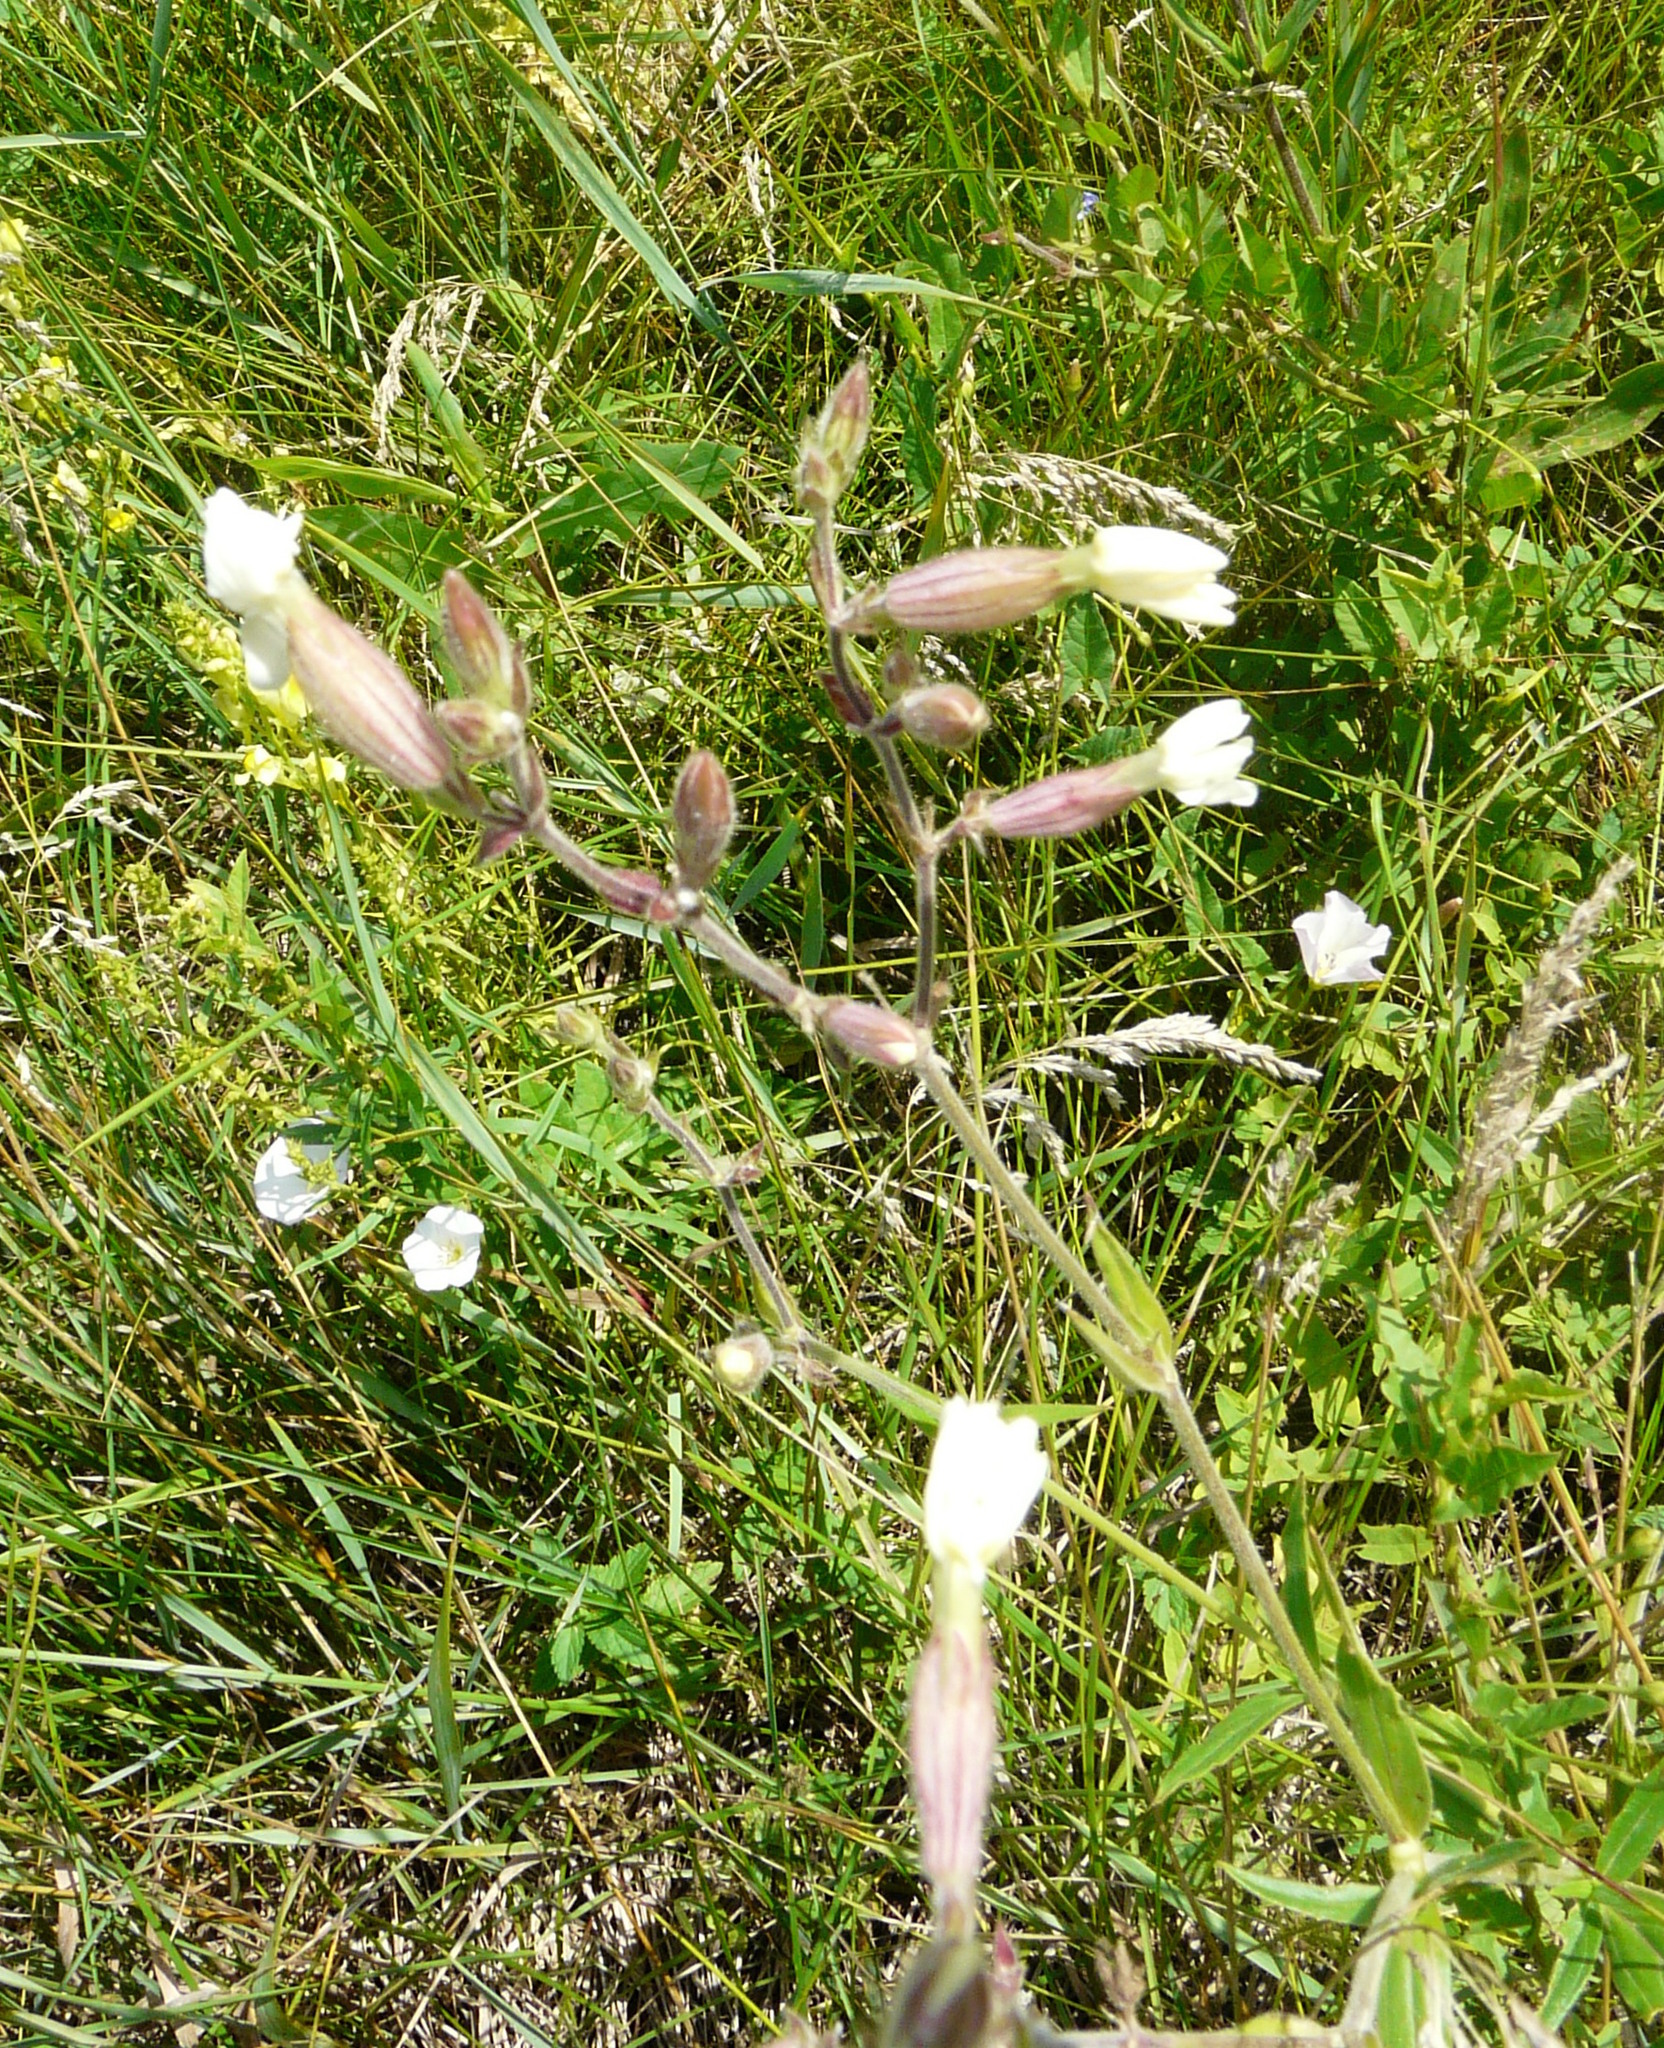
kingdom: Plantae
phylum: Tracheophyta
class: Magnoliopsida
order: Caryophyllales
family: Caryophyllaceae
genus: Silene
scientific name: Silene latifolia
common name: White campion
